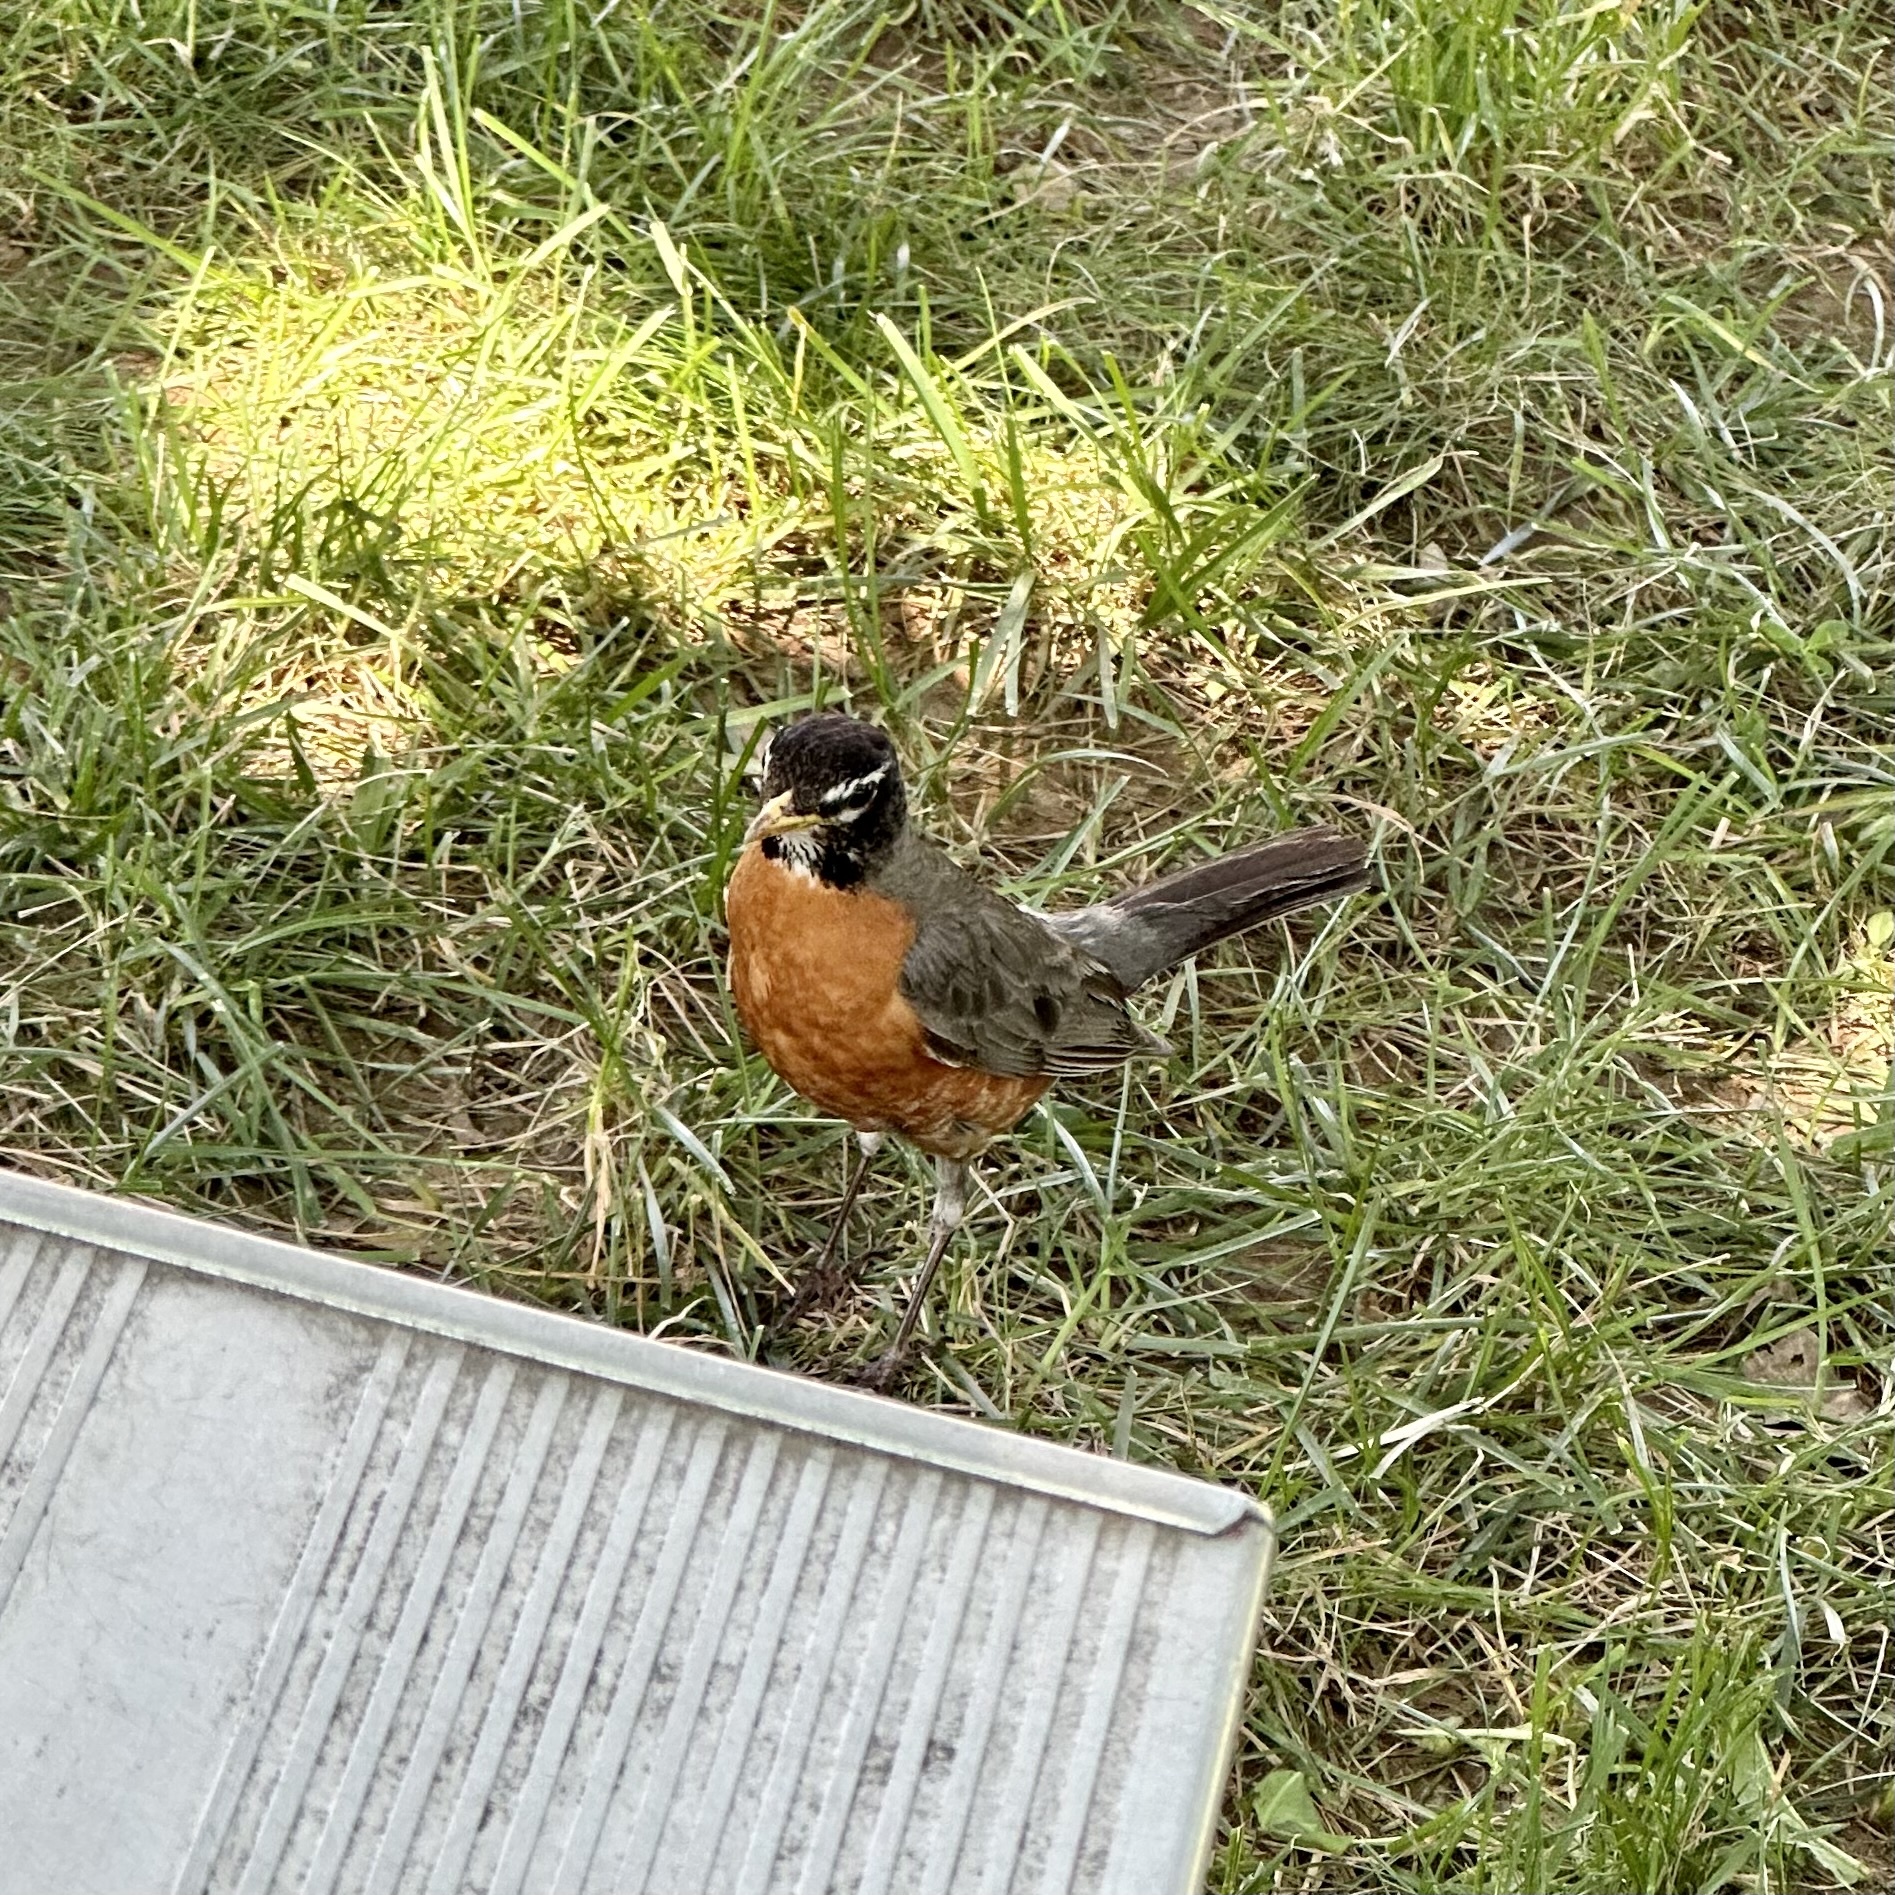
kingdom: Animalia
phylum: Chordata
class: Aves
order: Passeriformes
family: Turdidae
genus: Turdus
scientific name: Turdus migratorius
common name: American robin
